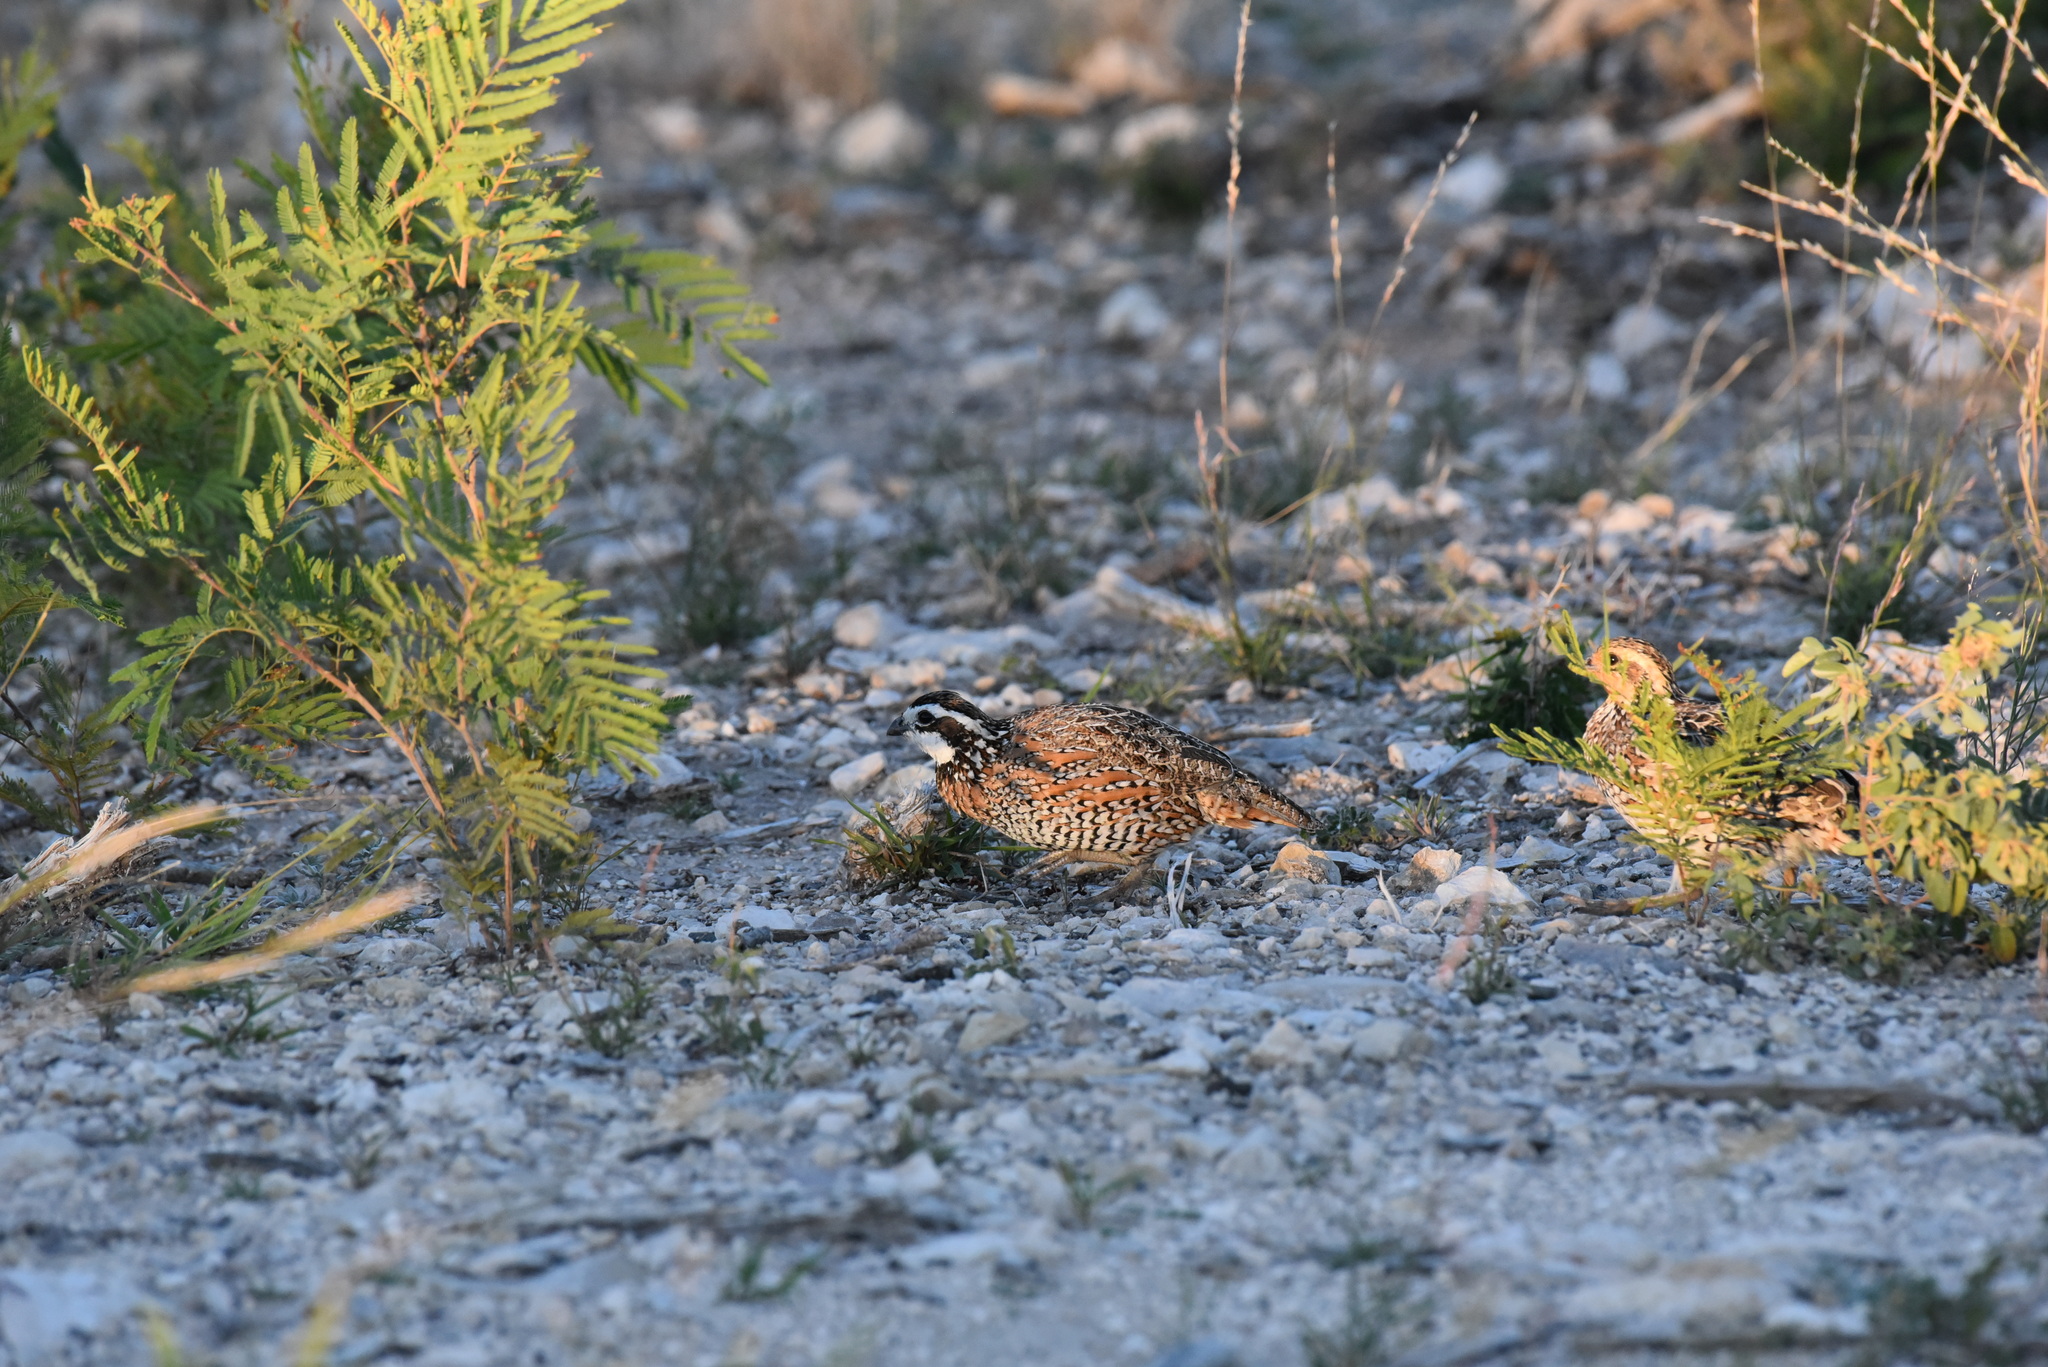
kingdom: Animalia
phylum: Chordata
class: Aves
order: Galliformes
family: Odontophoridae
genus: Colinus
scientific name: Colinus virginianus
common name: Northern bobwhite
